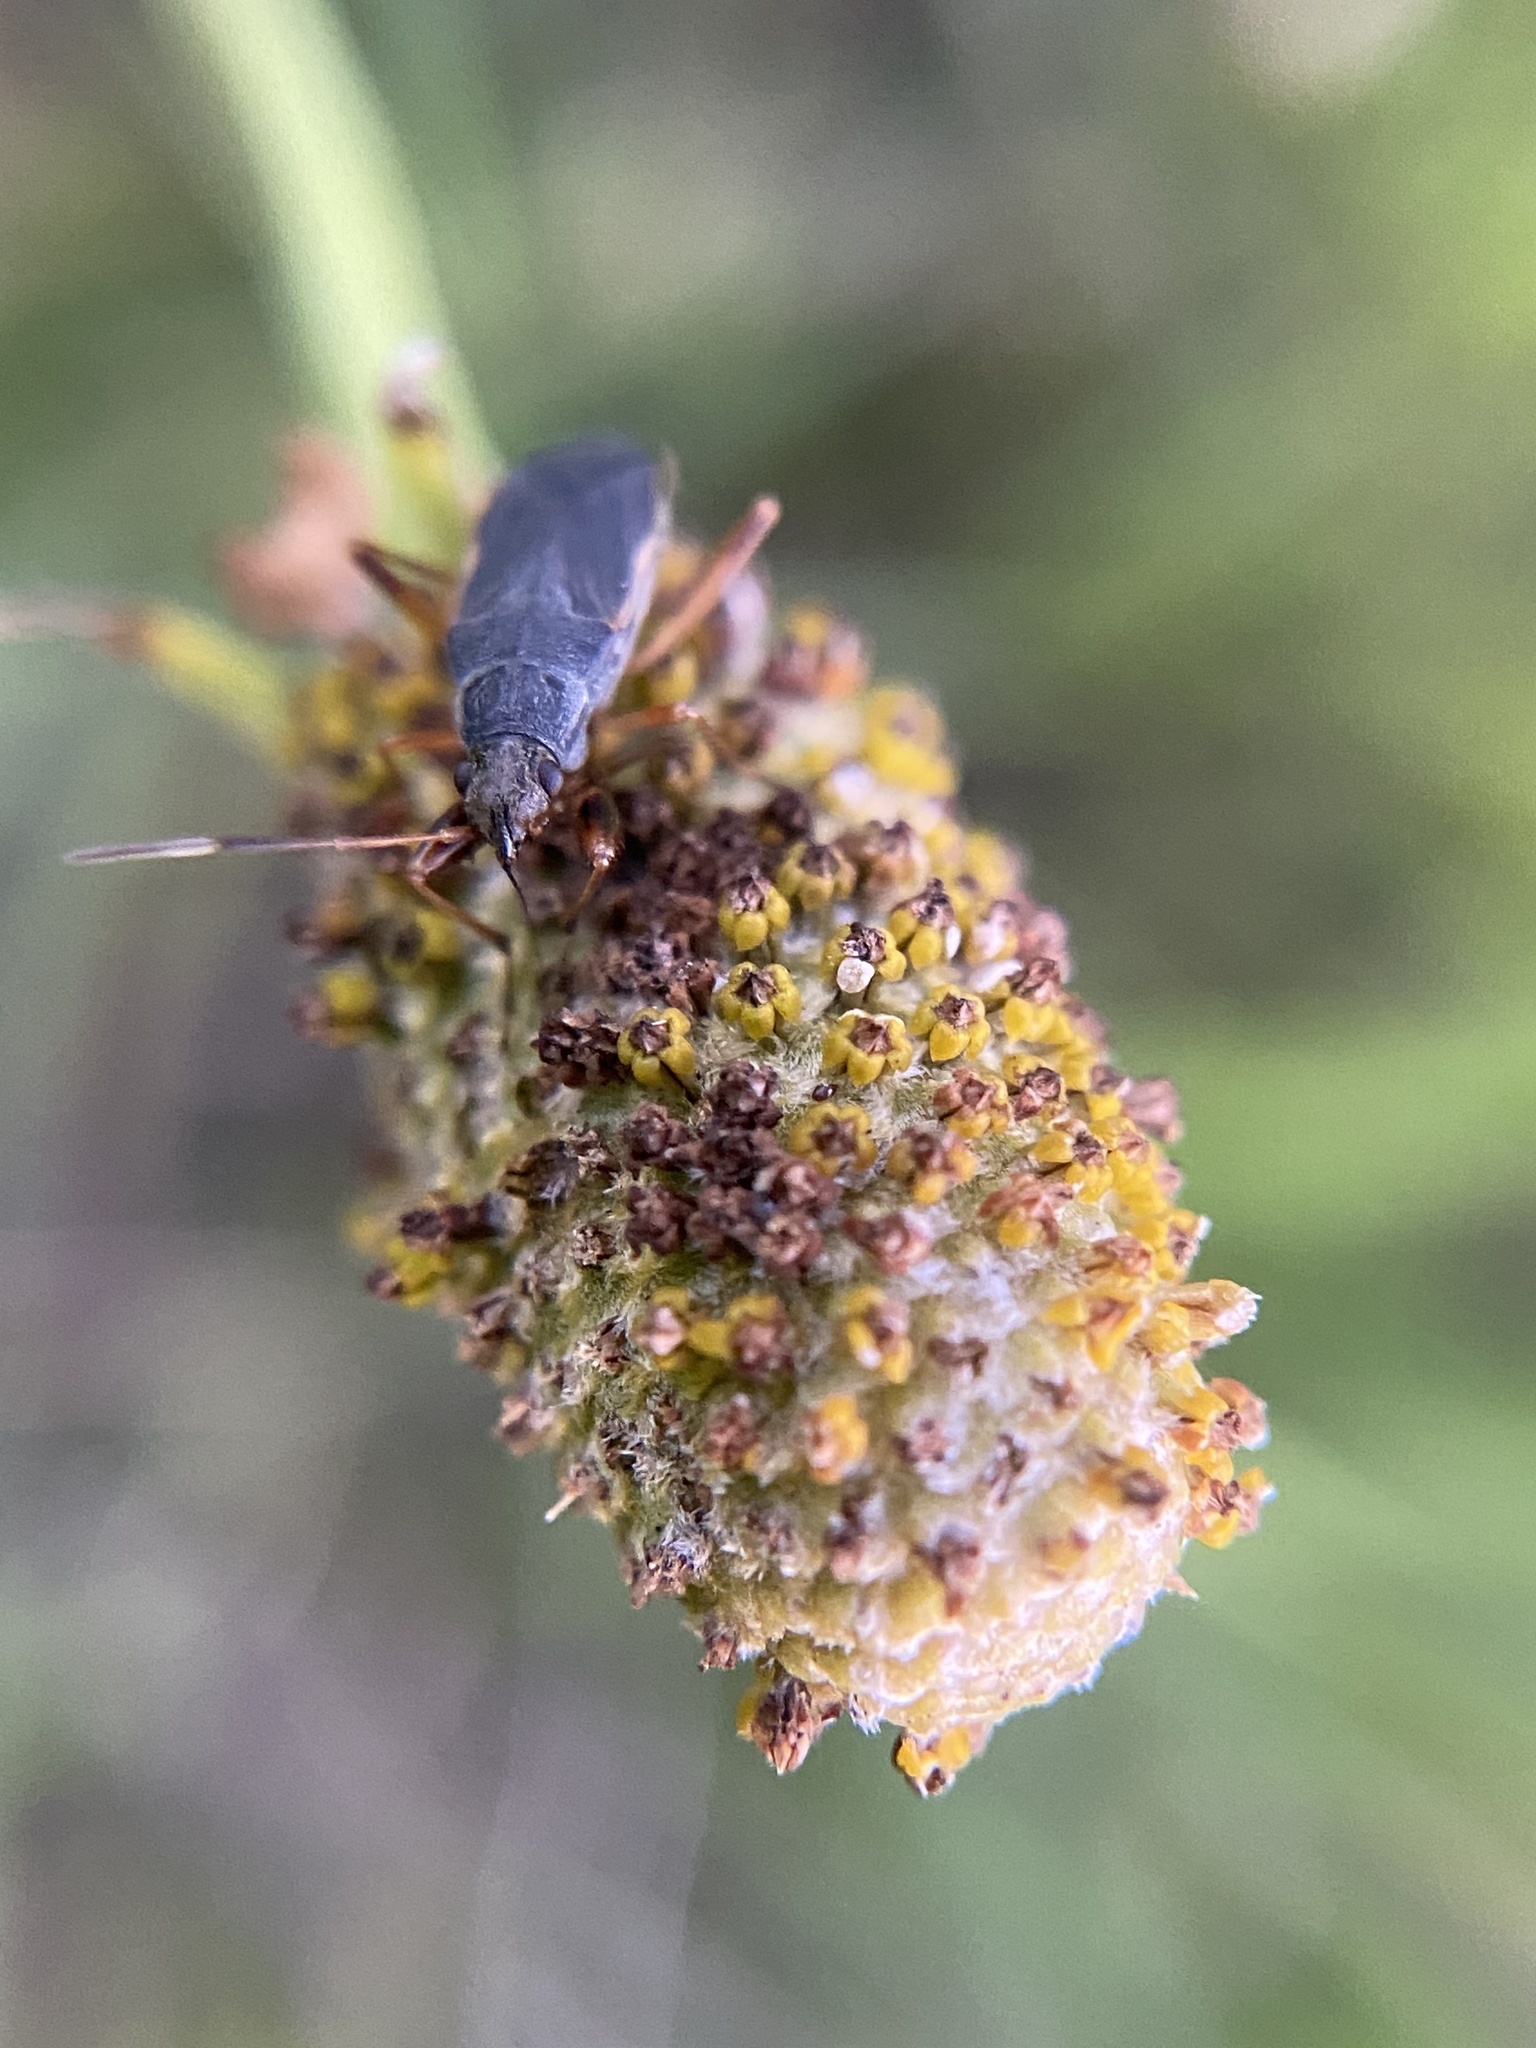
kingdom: Animalia
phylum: Arthropoda
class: Insecta
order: Hemiptera
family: Rhyparochromidae
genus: Cnemodus
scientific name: Cnemodus mavortius
